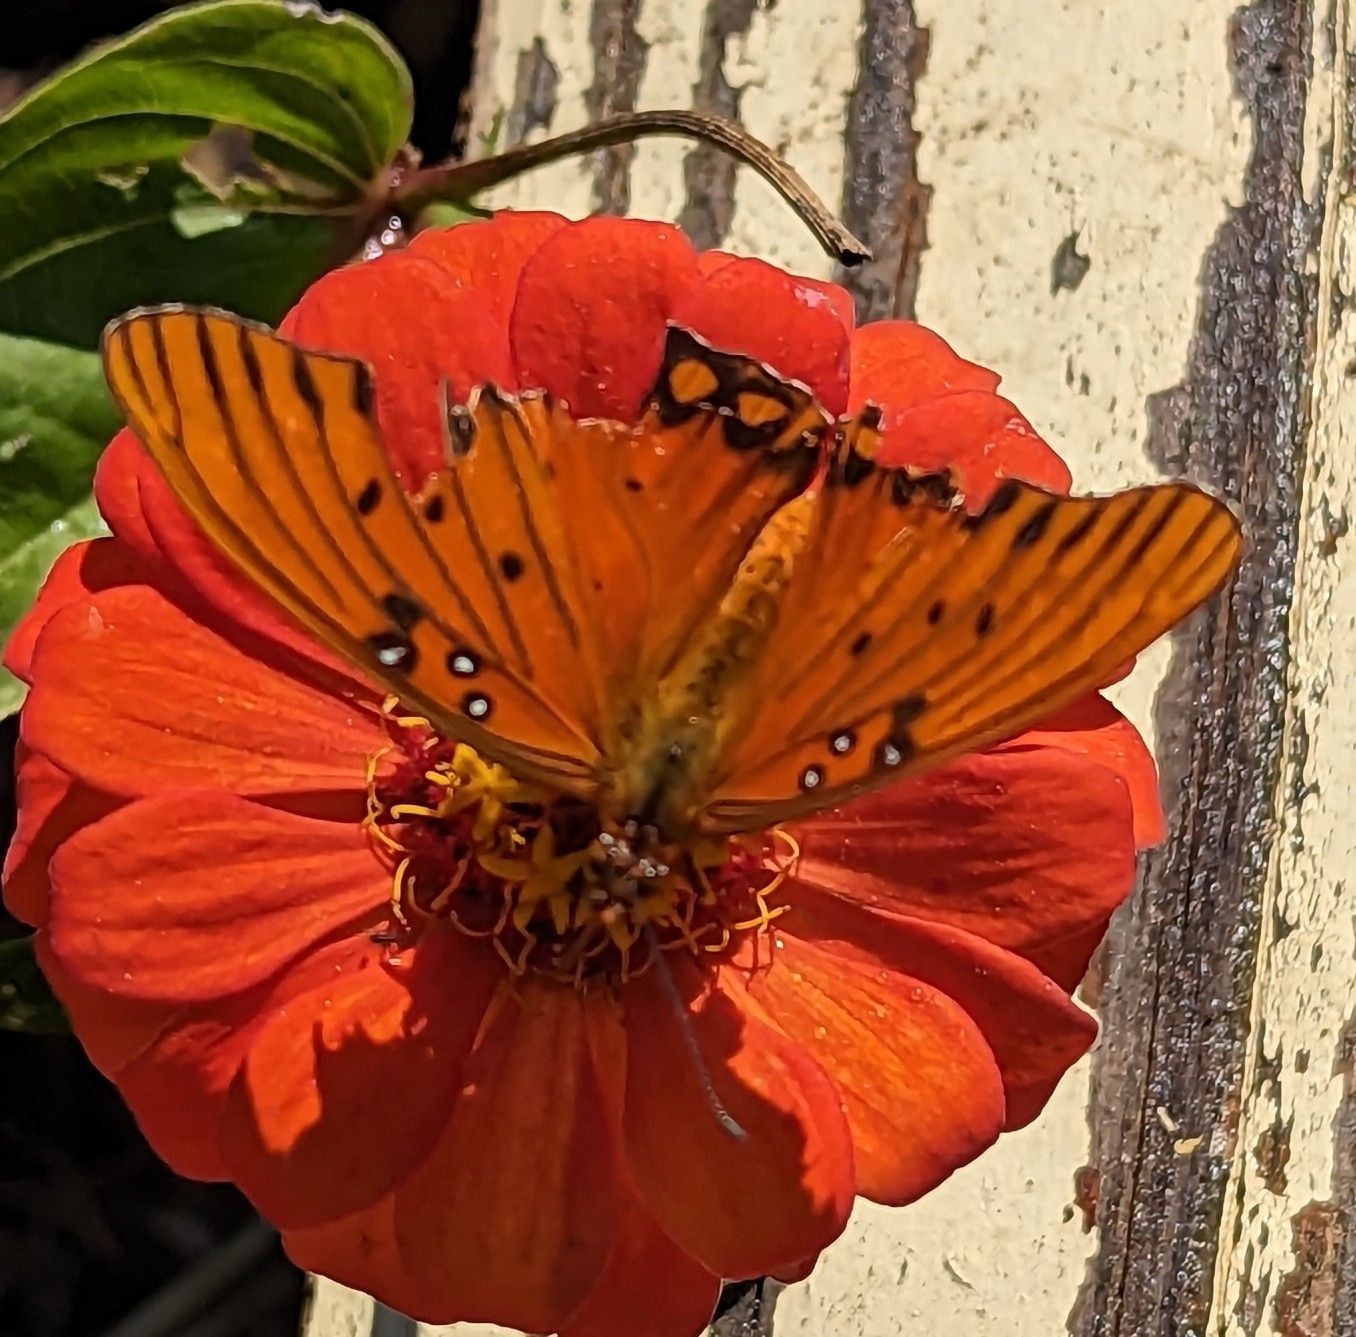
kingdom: Animalia
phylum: Arthropoda
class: Insecta
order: Lepidoptera
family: Nymphalidae
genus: Dione
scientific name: Dione vanillae
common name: Gulf fritillary
